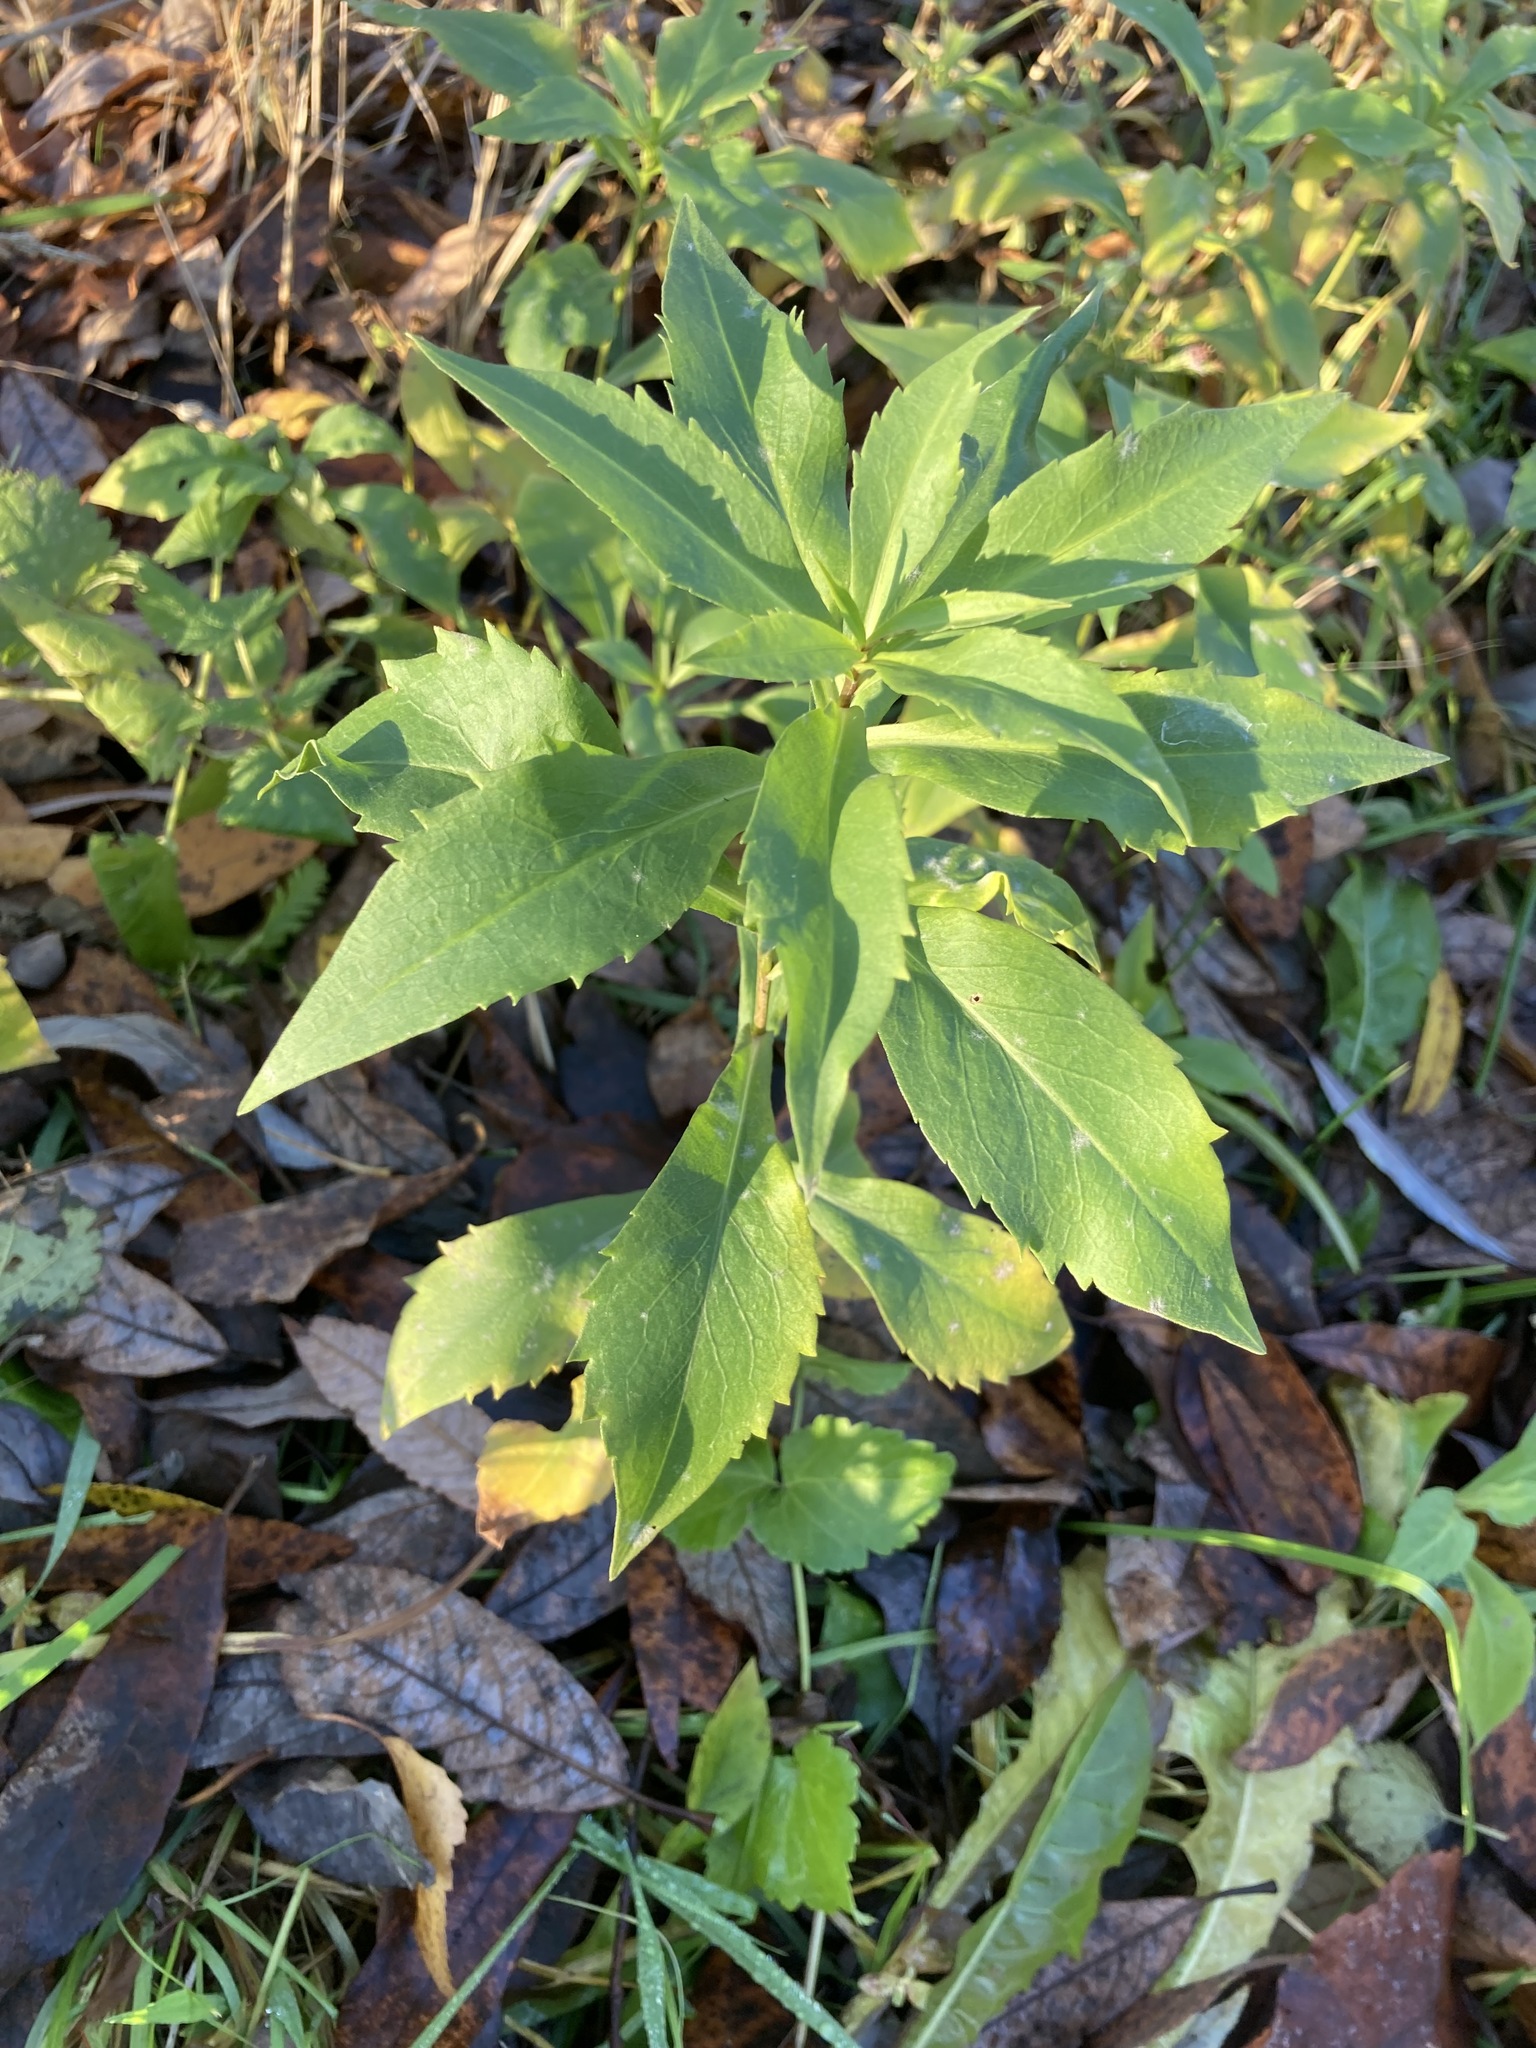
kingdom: Plantae
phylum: Tracheophyta
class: Magnoliopsida
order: Asterales
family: Asteraceae
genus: Solidago
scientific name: Solidago canadensis
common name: Canada goldenrod
